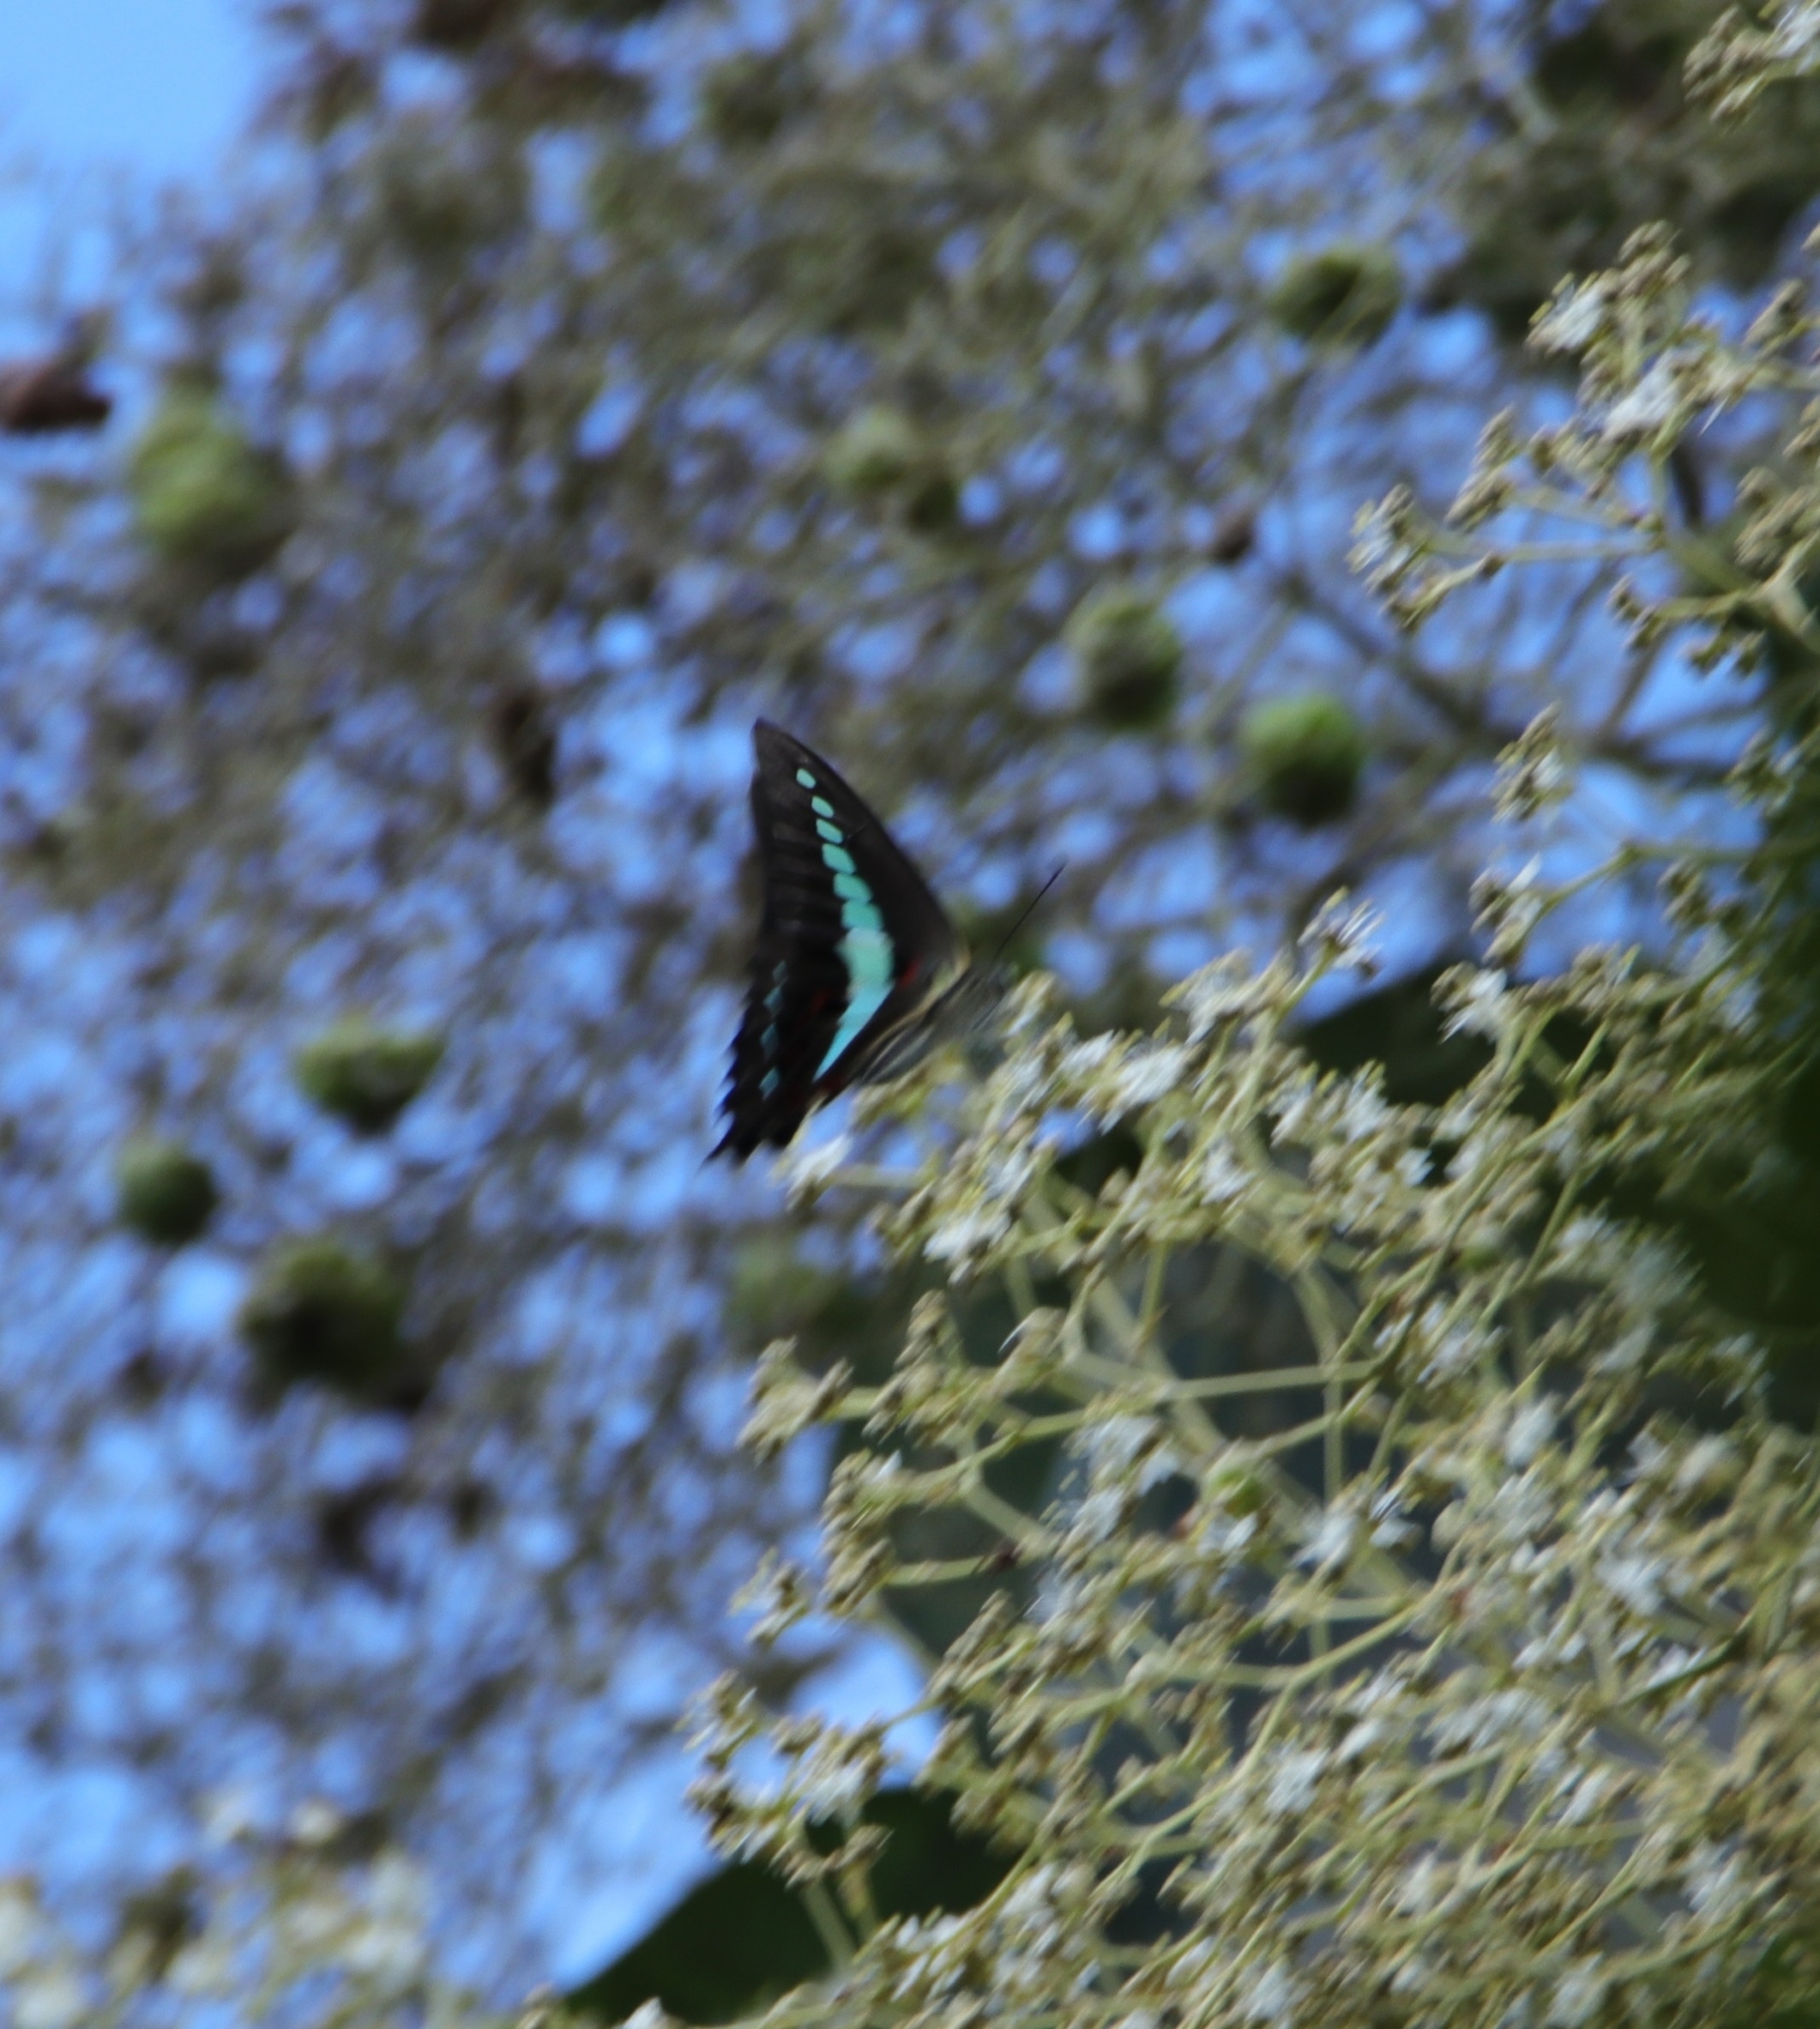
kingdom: Animalia
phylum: Arthropoda
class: Insecta
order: Lepidoptera
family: Papilionidae
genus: Graphium
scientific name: Graphium
